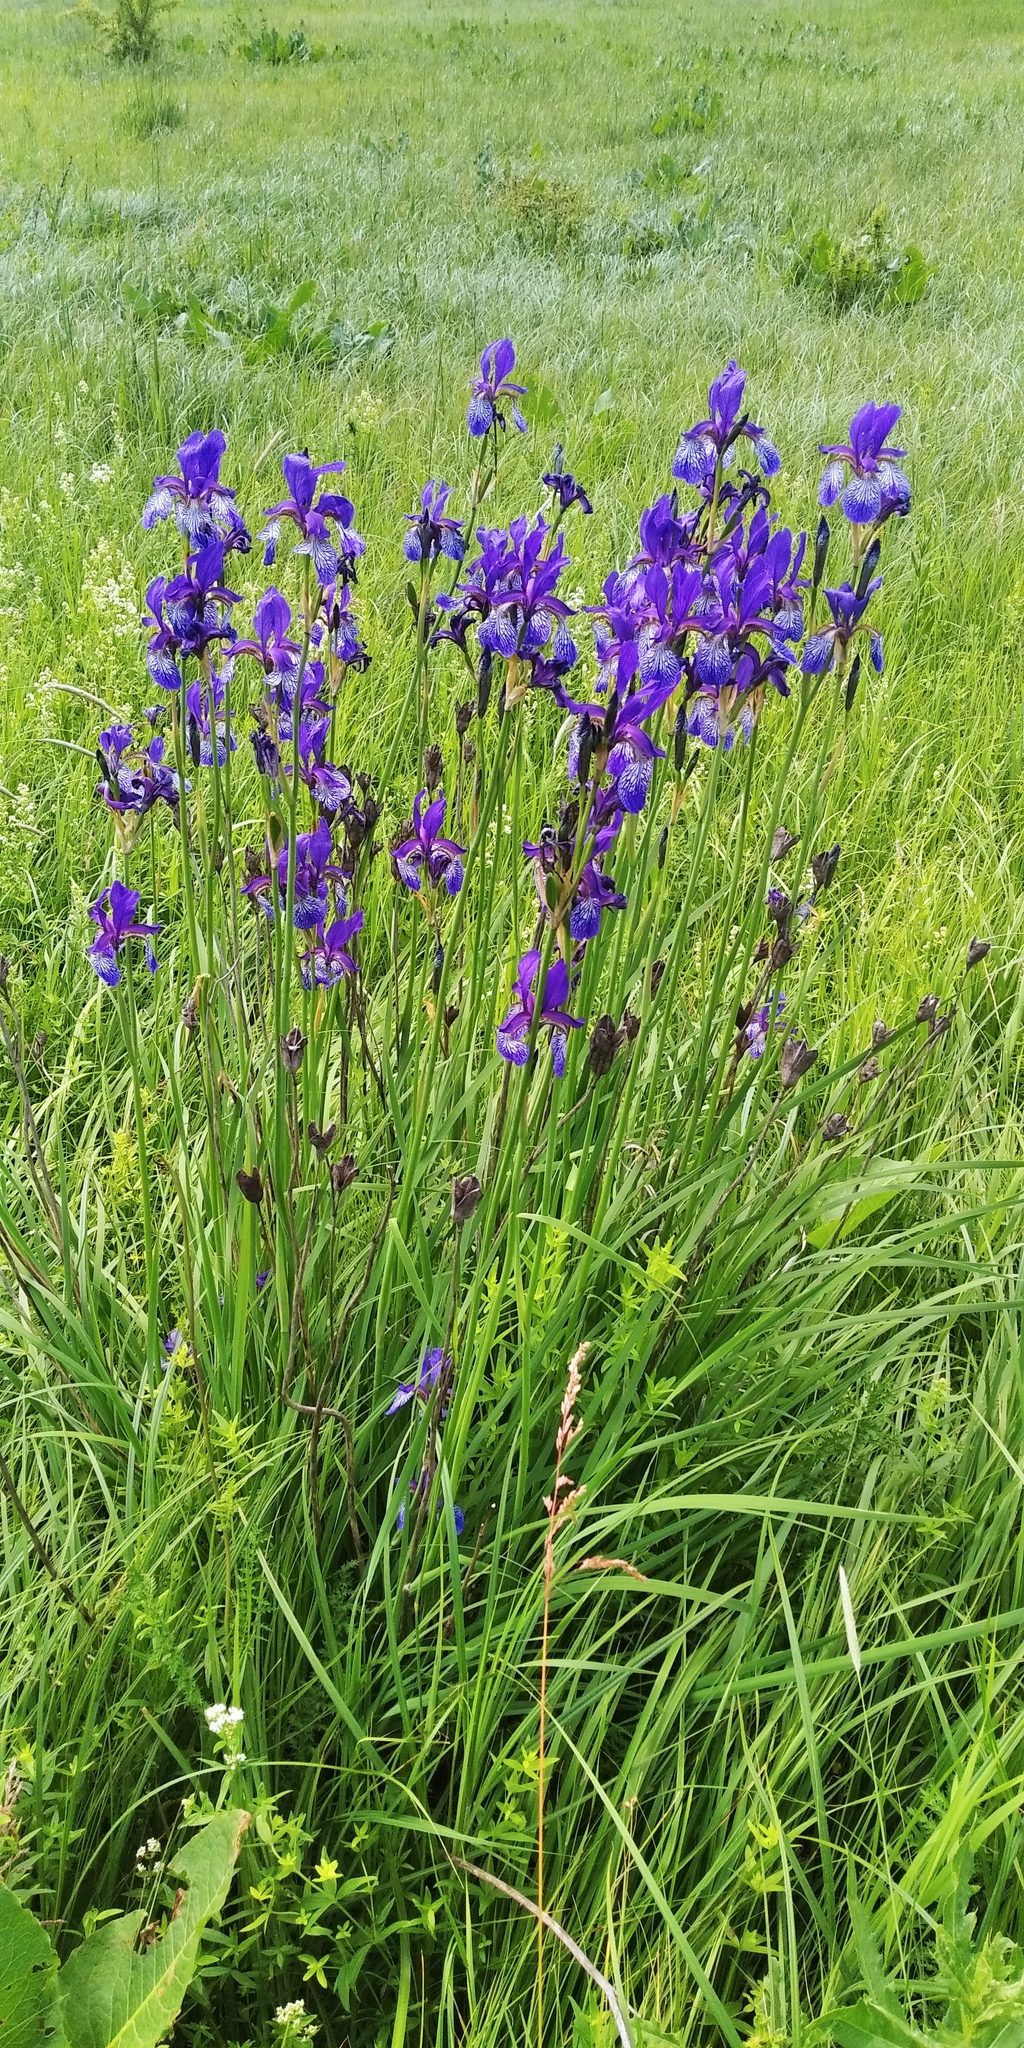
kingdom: Plantae
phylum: Tracheophyta
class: Liliopsida
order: Asparagales
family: Iridaceae
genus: Iris
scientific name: Iris sibirica
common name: Siberian iris
